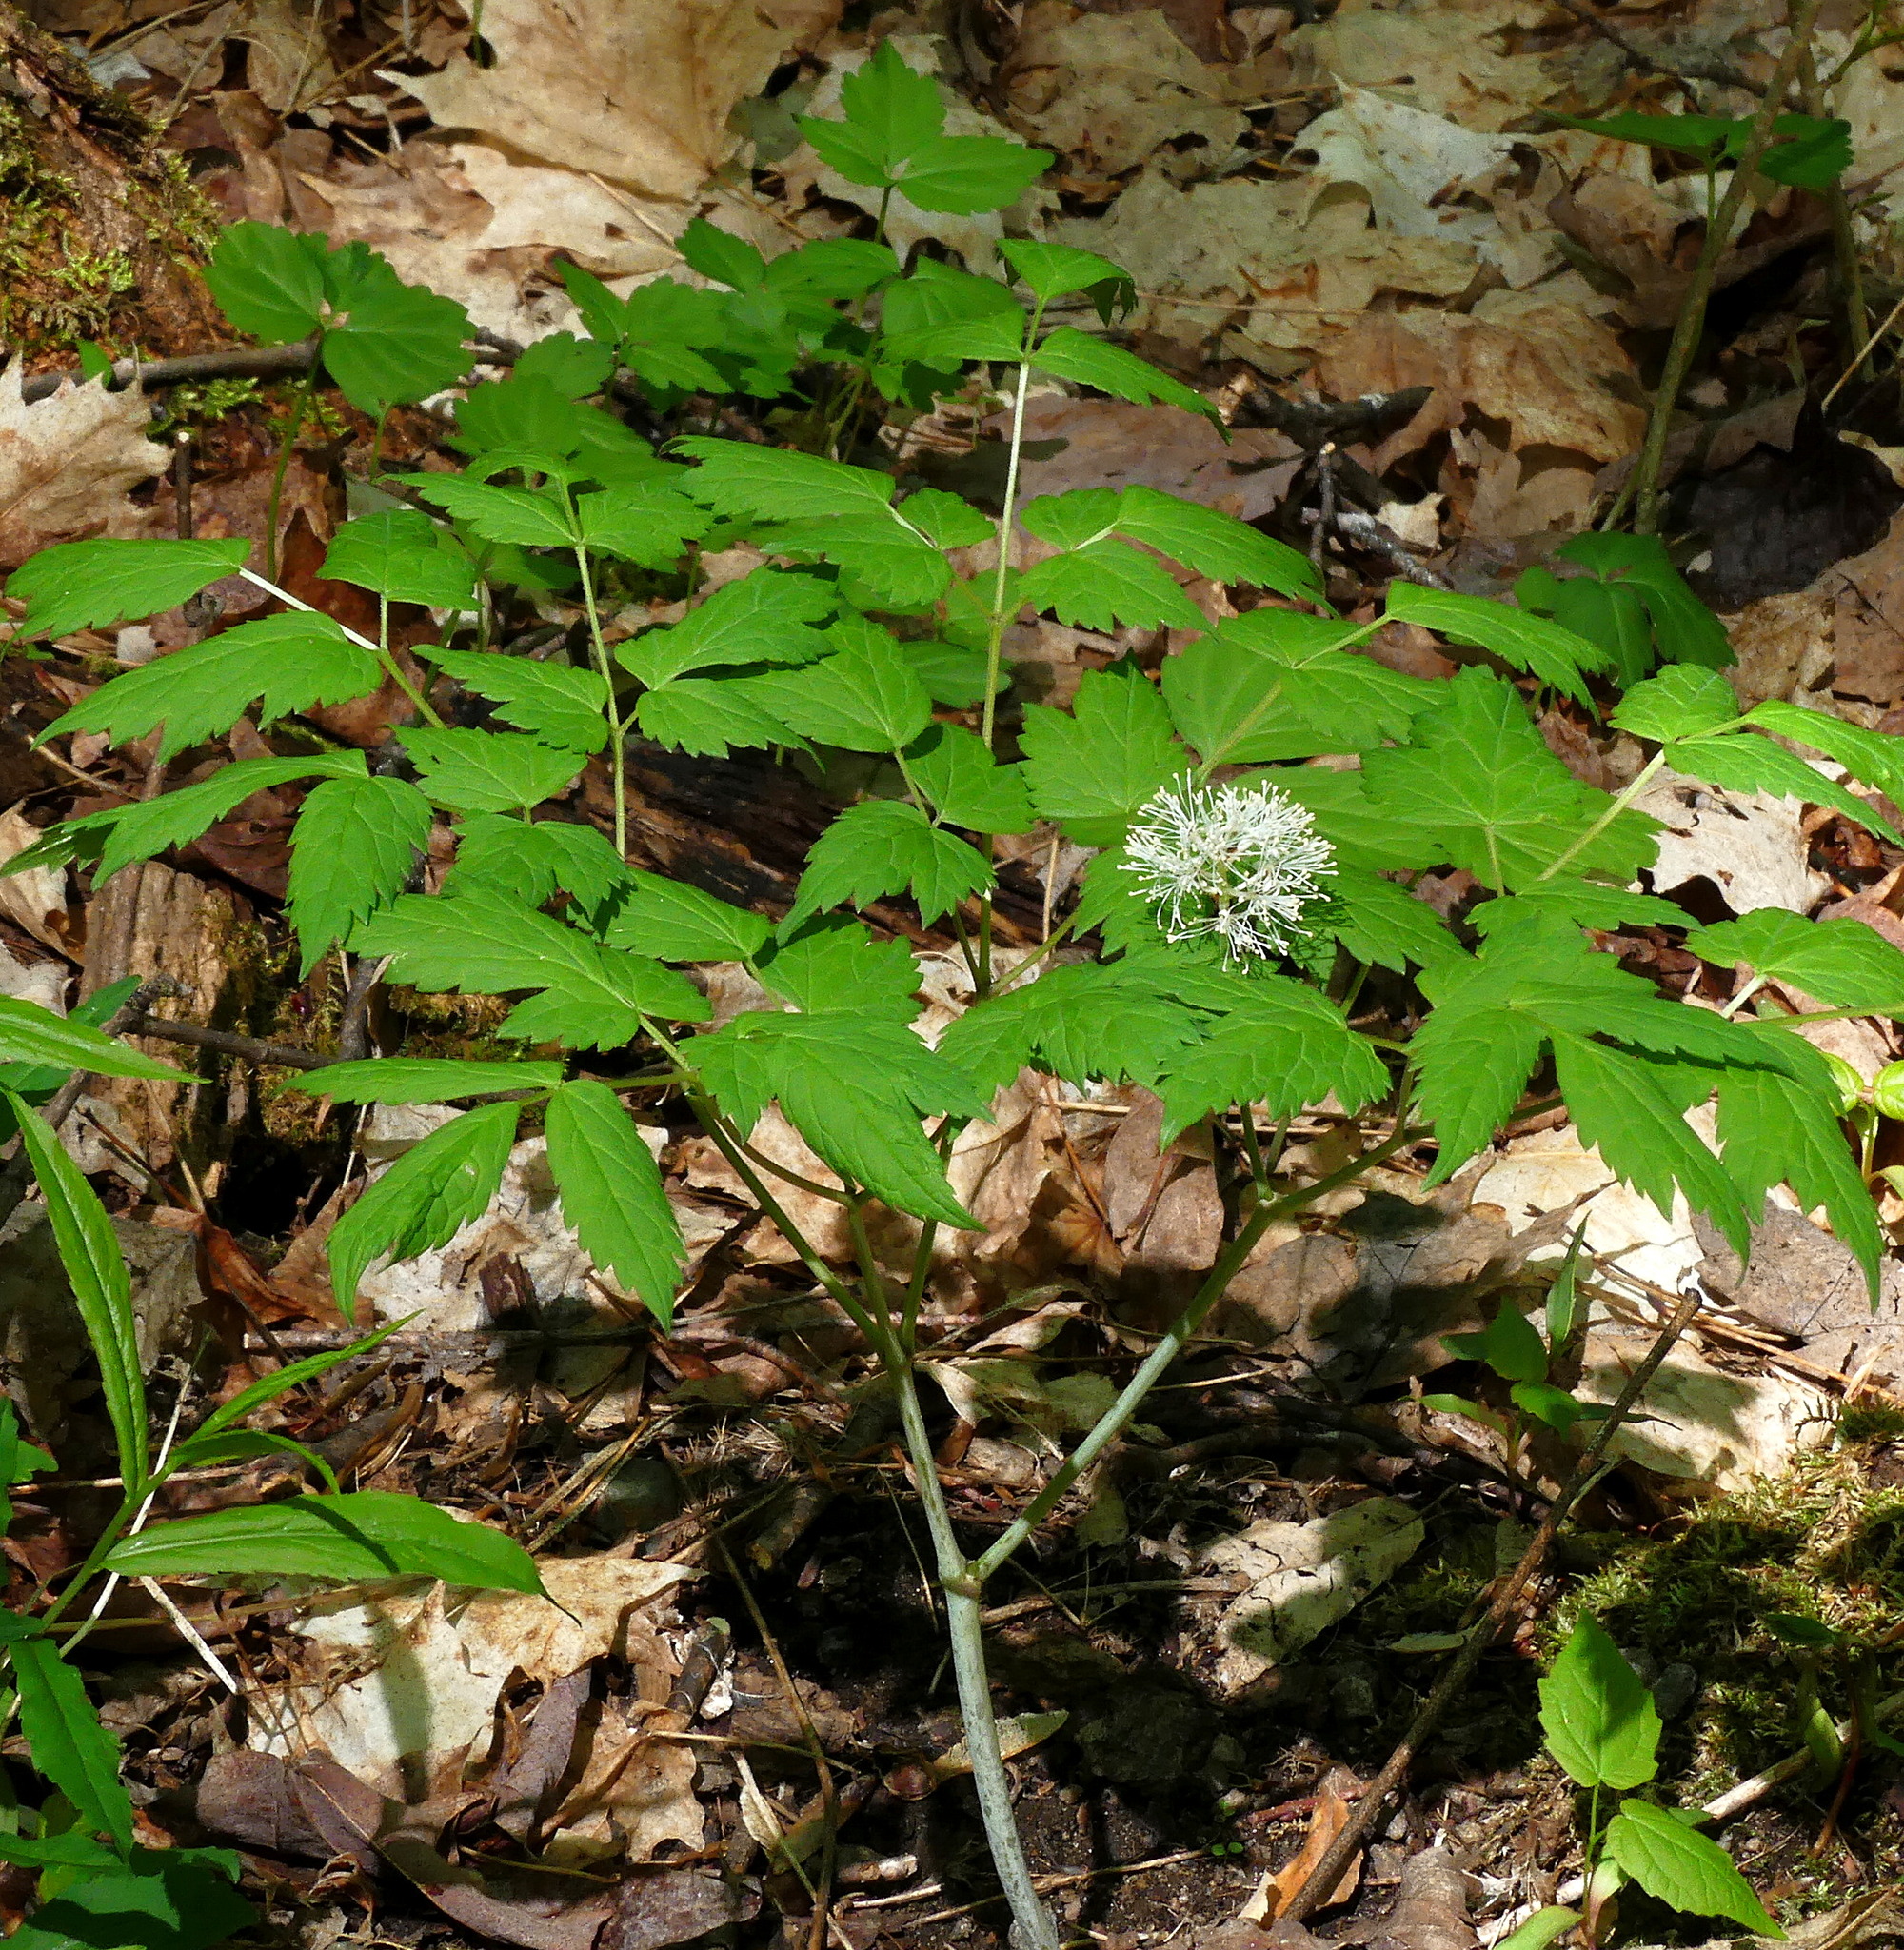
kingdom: Plantae
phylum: Tracheophyta
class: Magnoliopsida
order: Ranunculales
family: Ranunculaceae
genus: Actaea
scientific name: Actaea rubra
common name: Red baneberry
